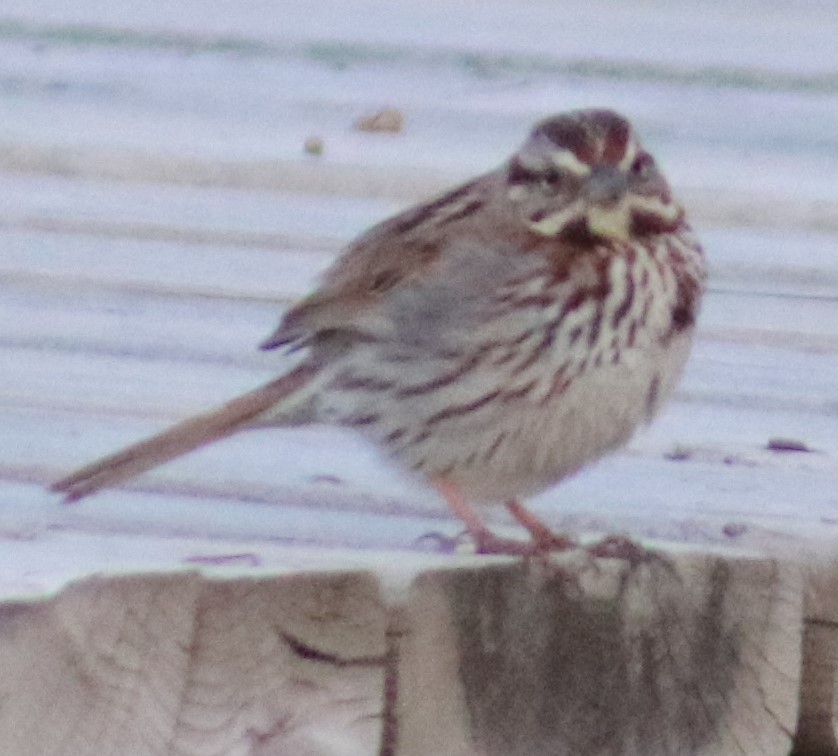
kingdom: Animalia
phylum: Chordata
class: Aves
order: Passeriformes
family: Passerellidae
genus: Melospiza
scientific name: Melospiza melodia
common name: Song sparrow
